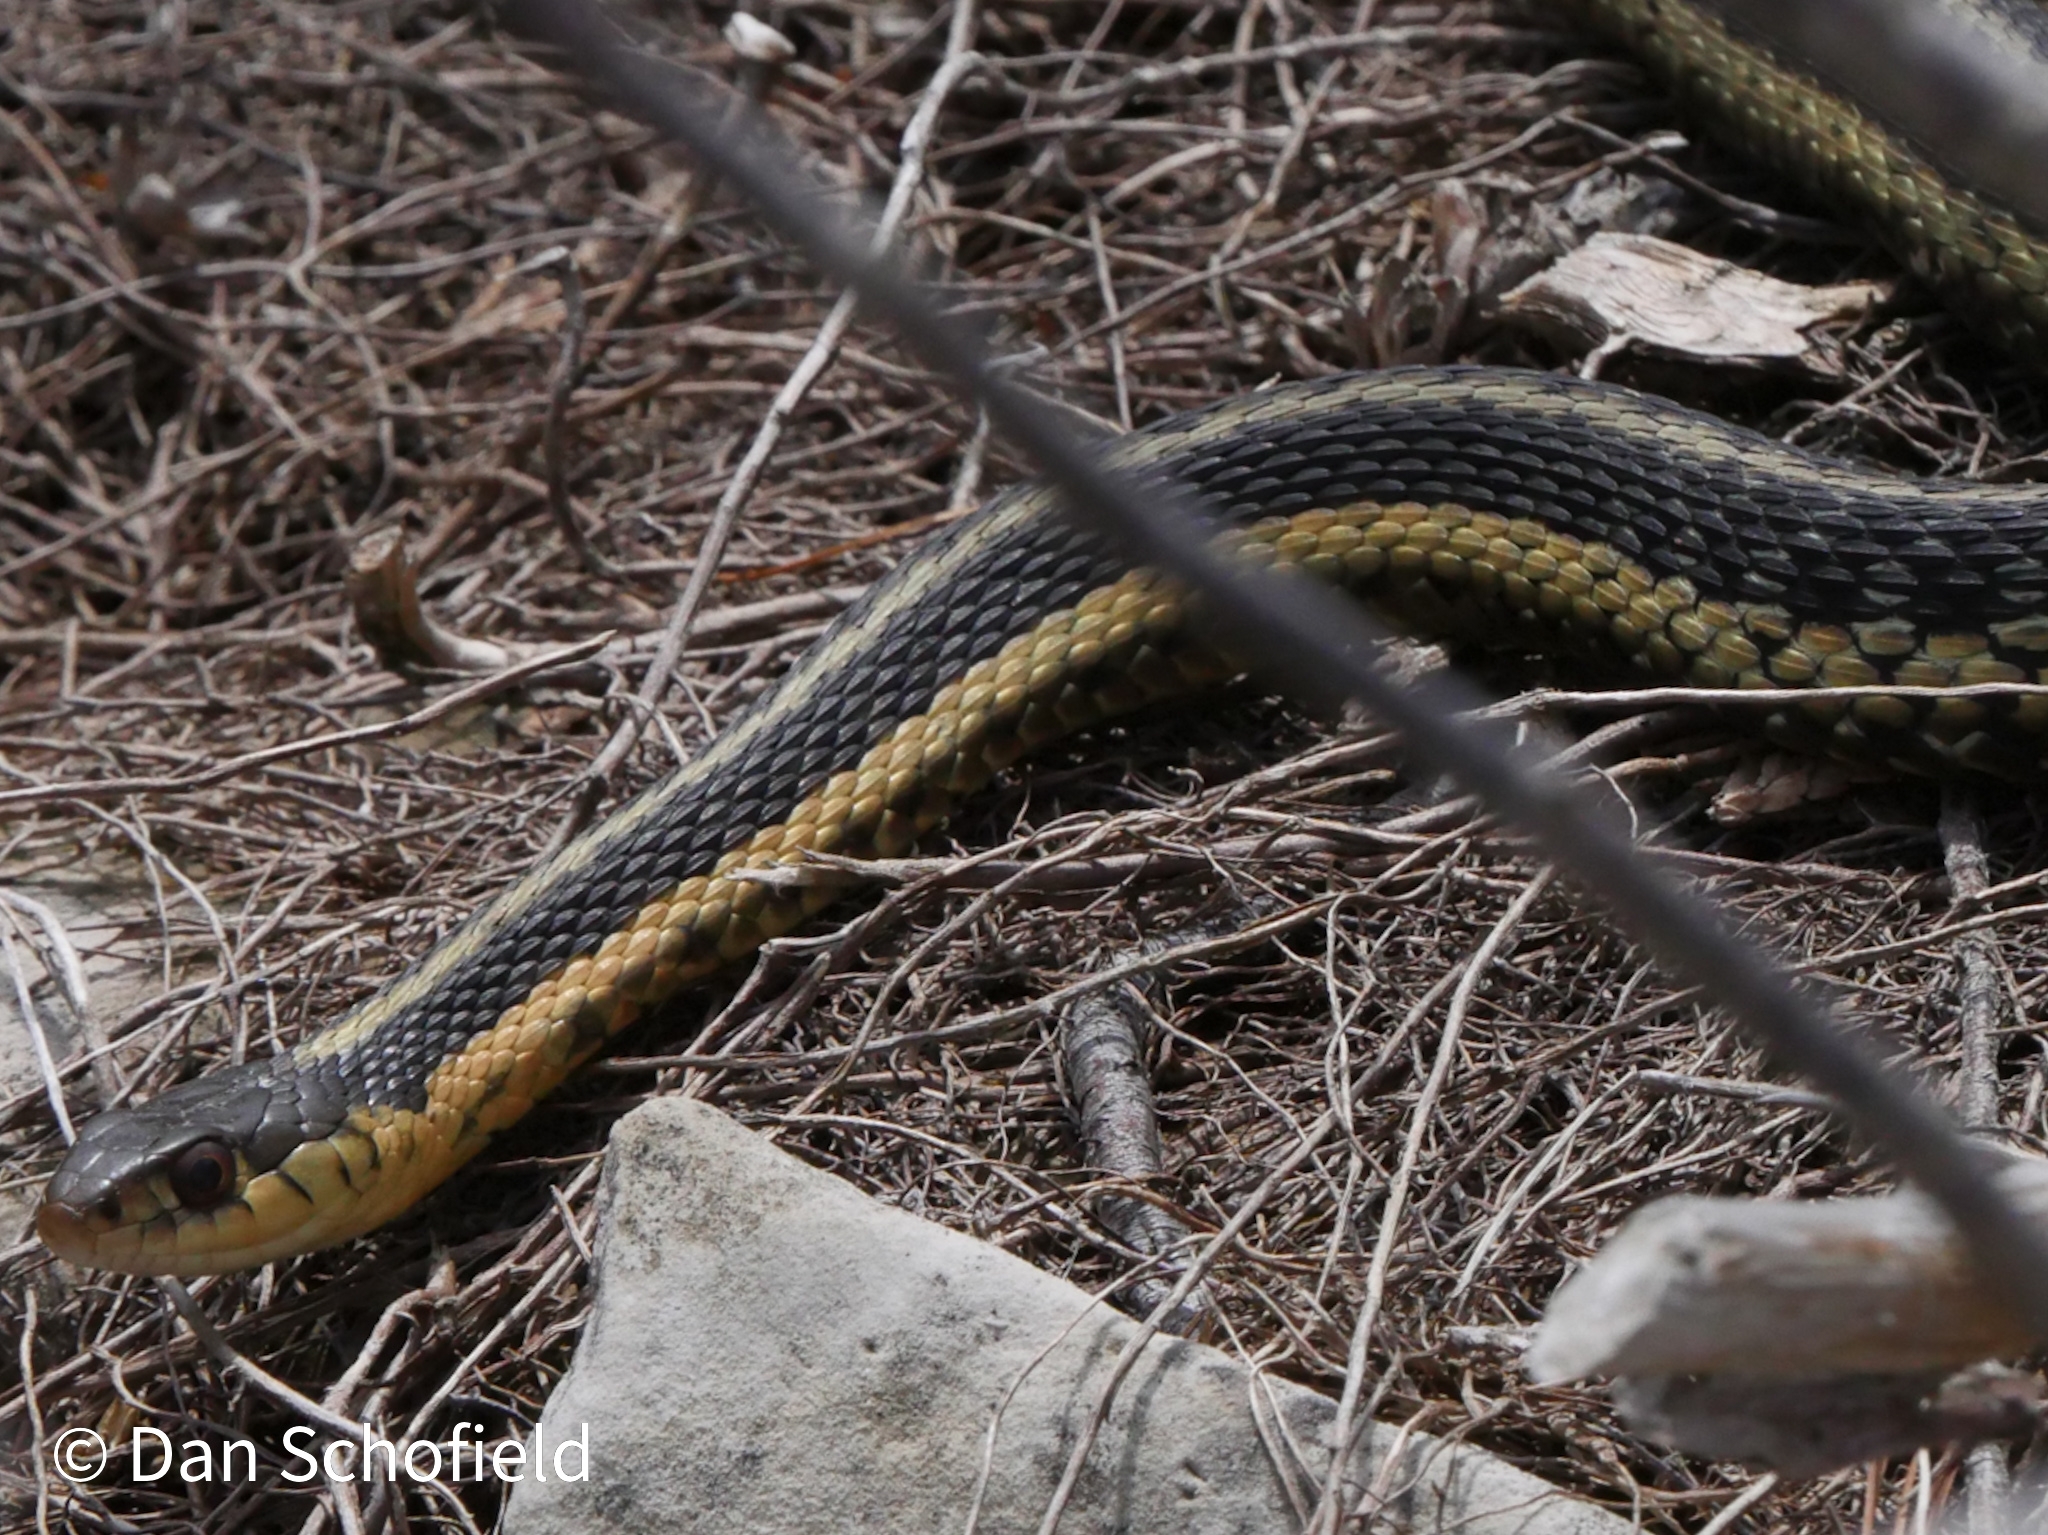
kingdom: Animalia
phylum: Chordata
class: Squamata
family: Colubridae
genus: Thamnophis
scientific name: Thamnophis sirtalis
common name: Common garter snake
